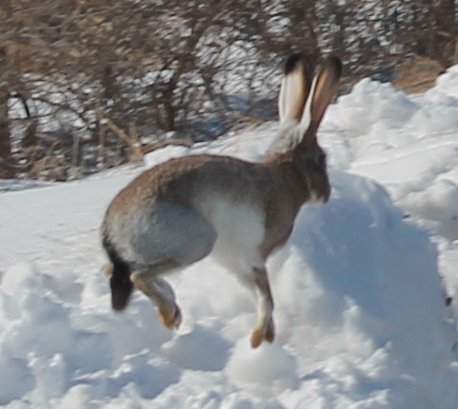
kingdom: Animalia
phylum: Chordata
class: Mammalia
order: Lagomorpha
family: Leporidae
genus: Lepus
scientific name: Lepus californicus
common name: Black-tailed jackrabbit
